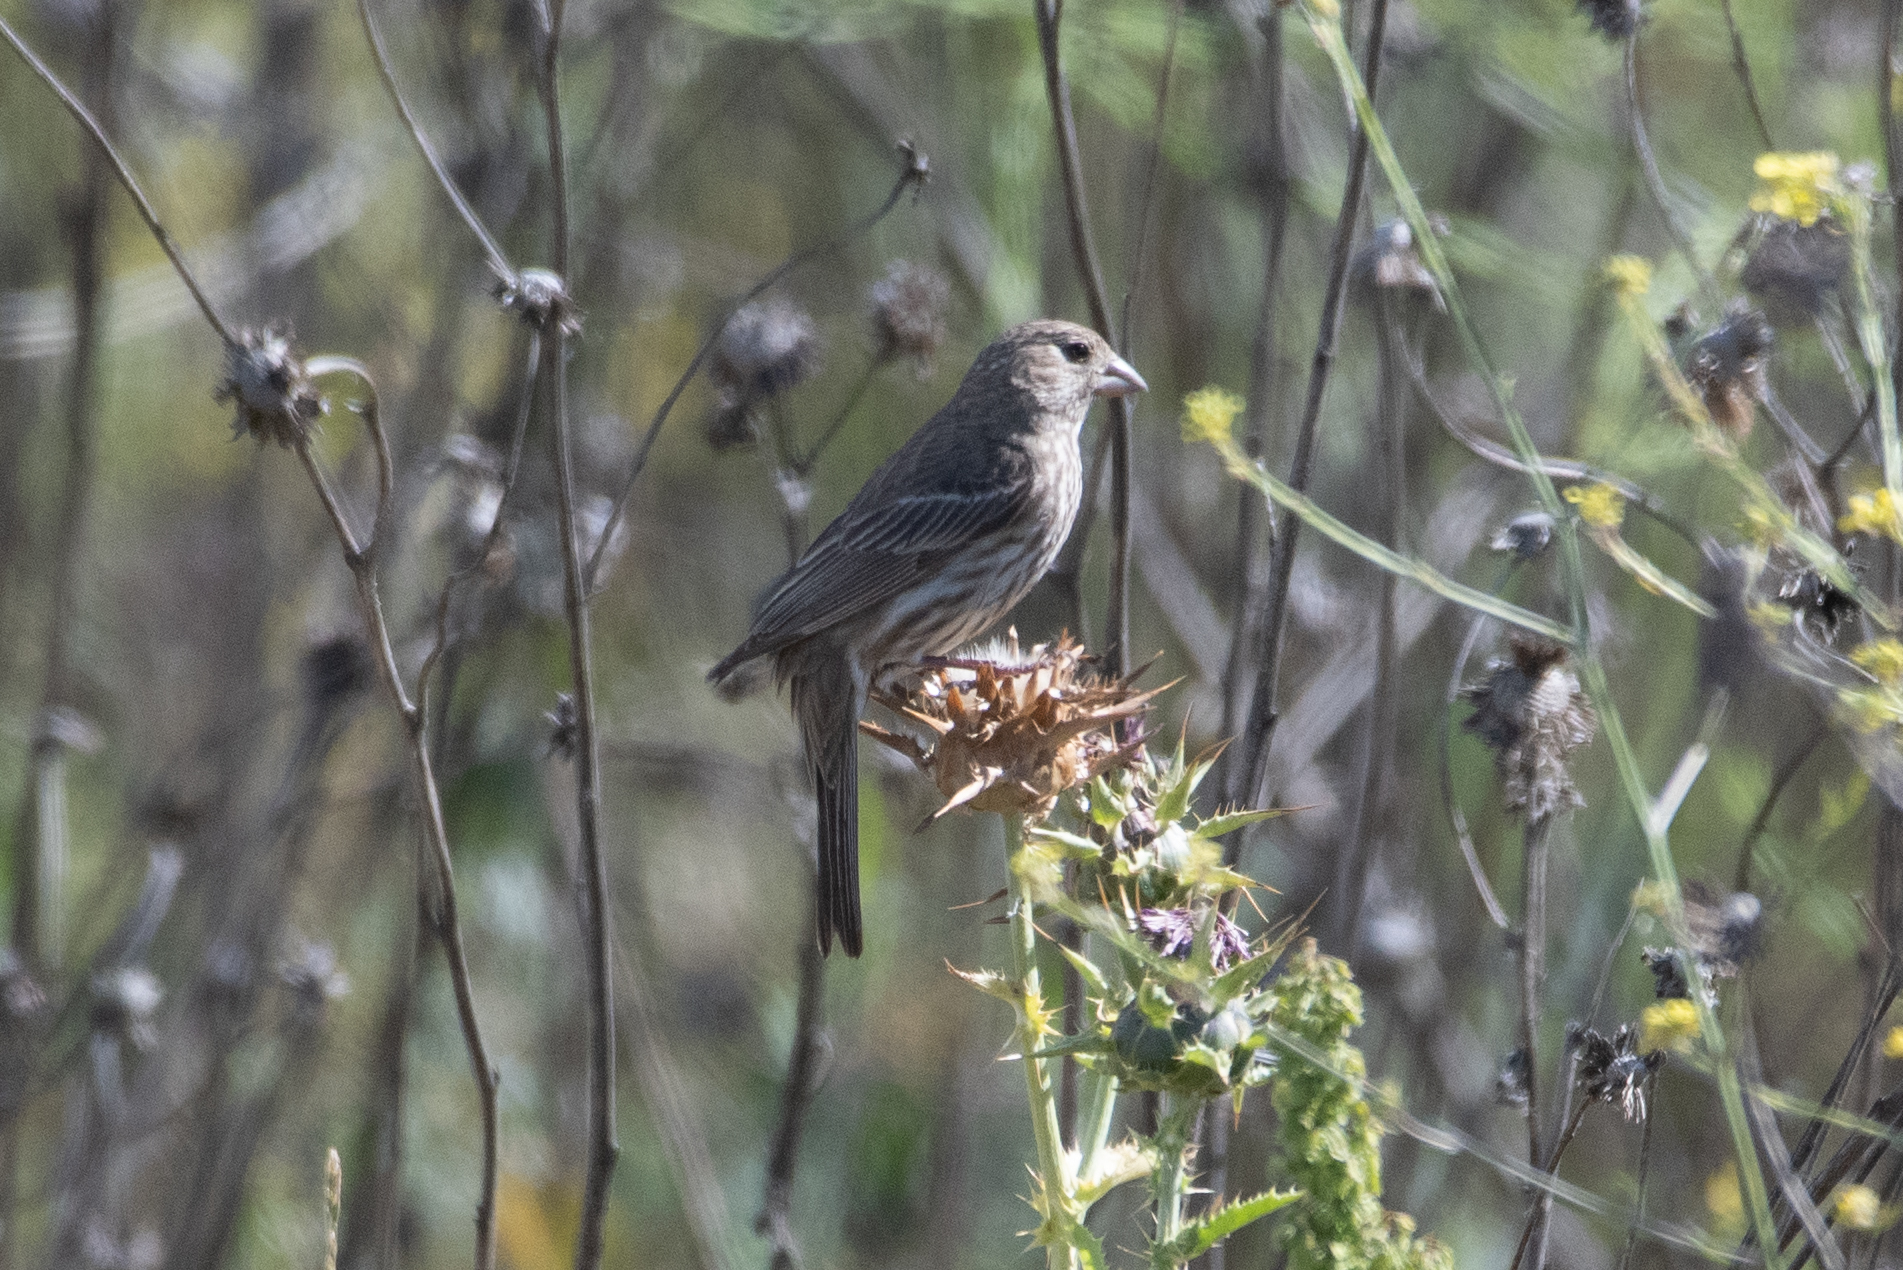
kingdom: Animalia
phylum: Chordata
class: Aves
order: Passeriformes
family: Fringillidae
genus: Haemorhous
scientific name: Haemorhous mexicanus
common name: House finch
